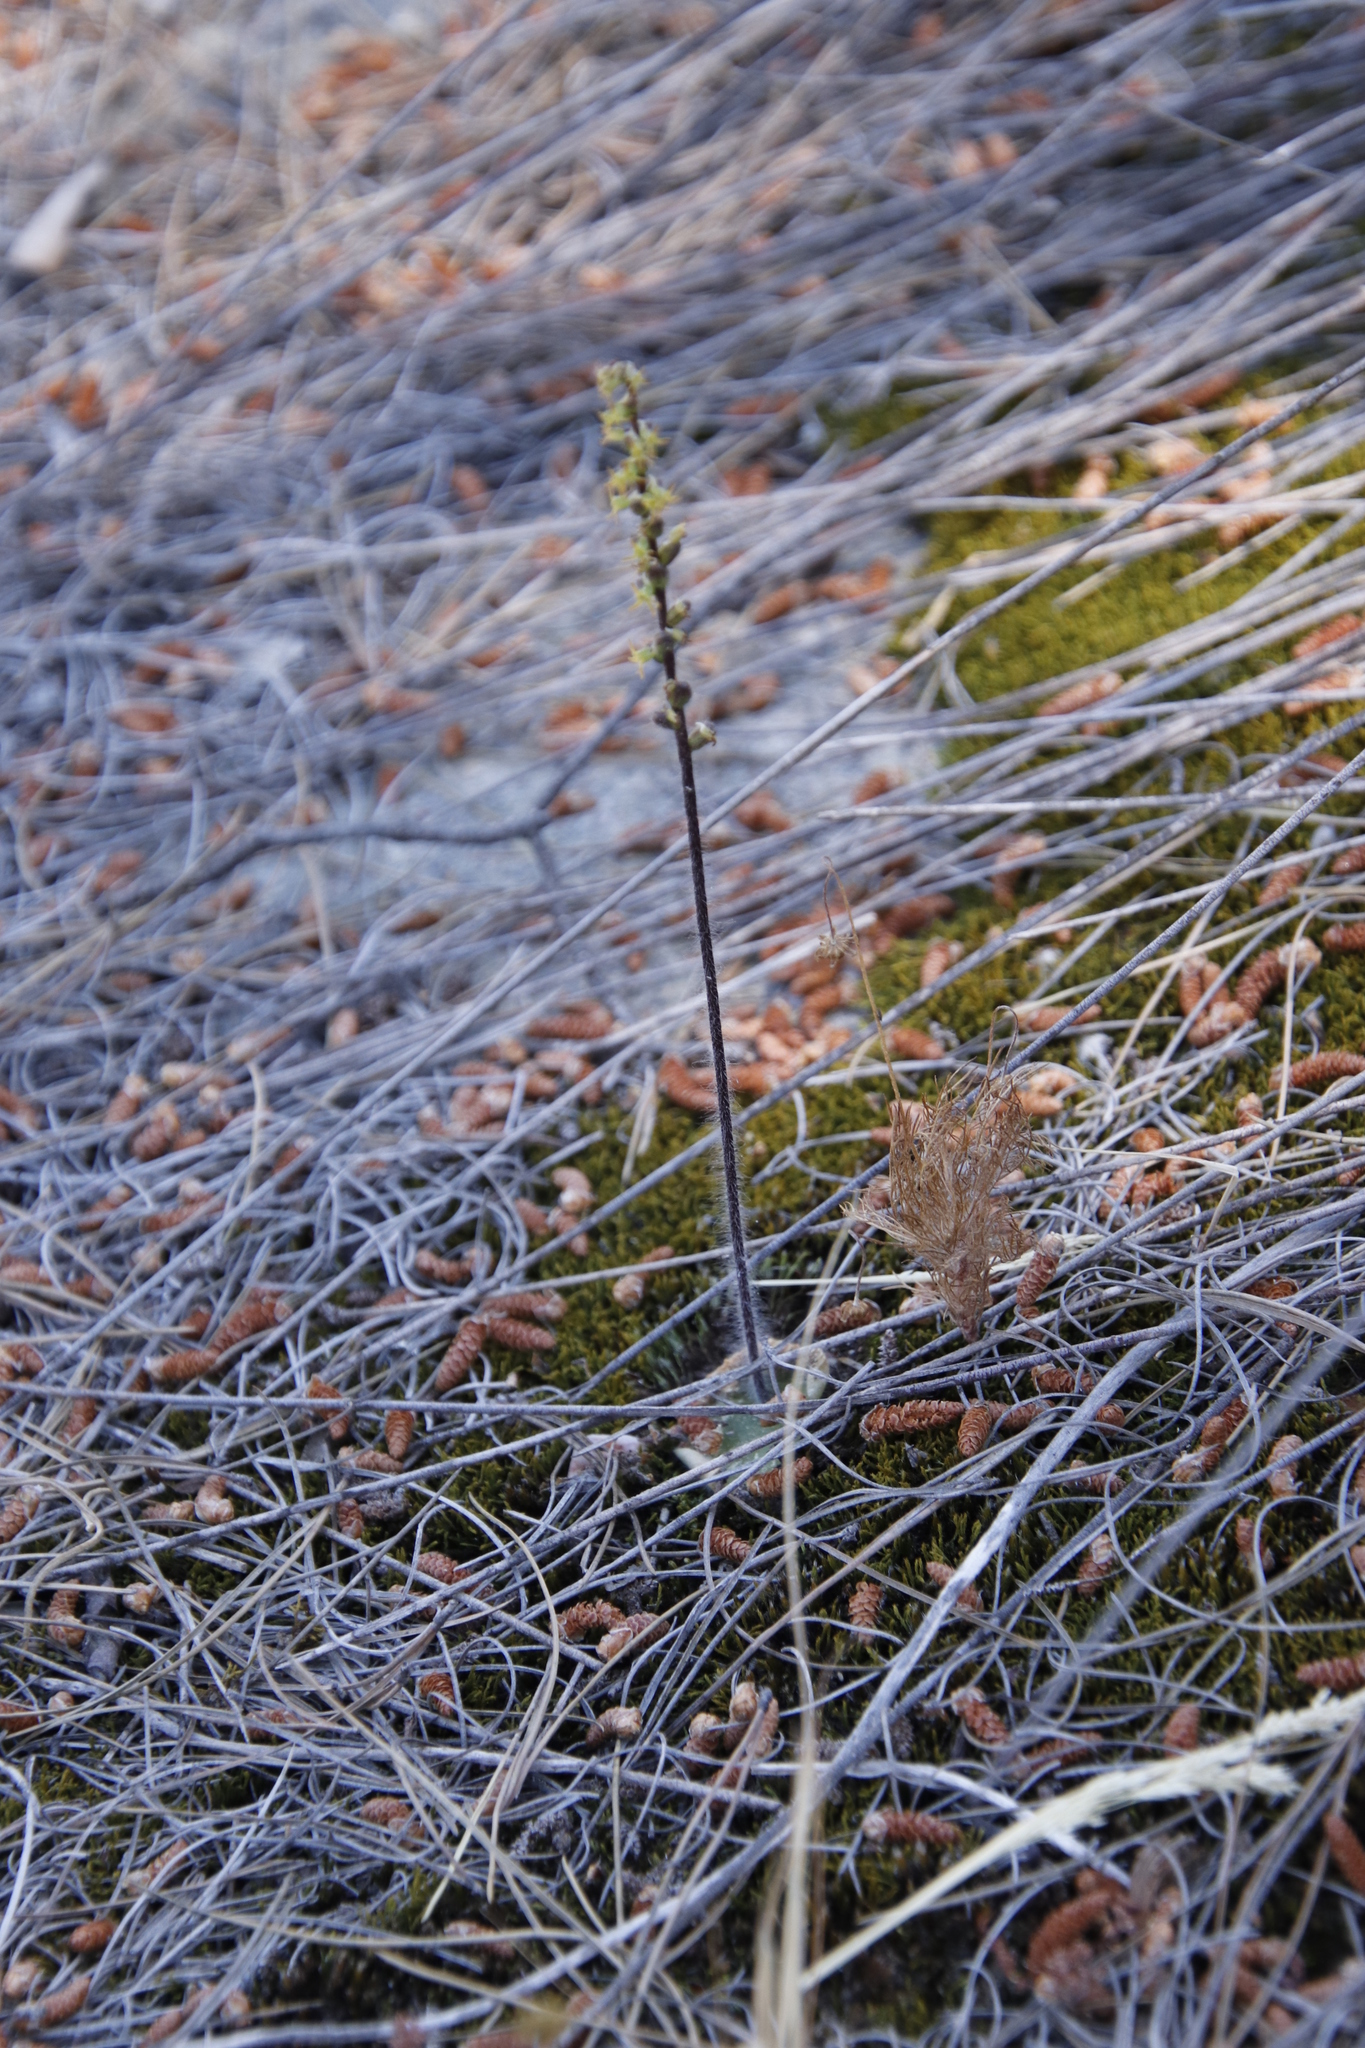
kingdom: Plantae
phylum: Tracheophyta
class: Liliopsida
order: Asparagales
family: Orchidaceae
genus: Holothrix
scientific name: Holothrix villosa
